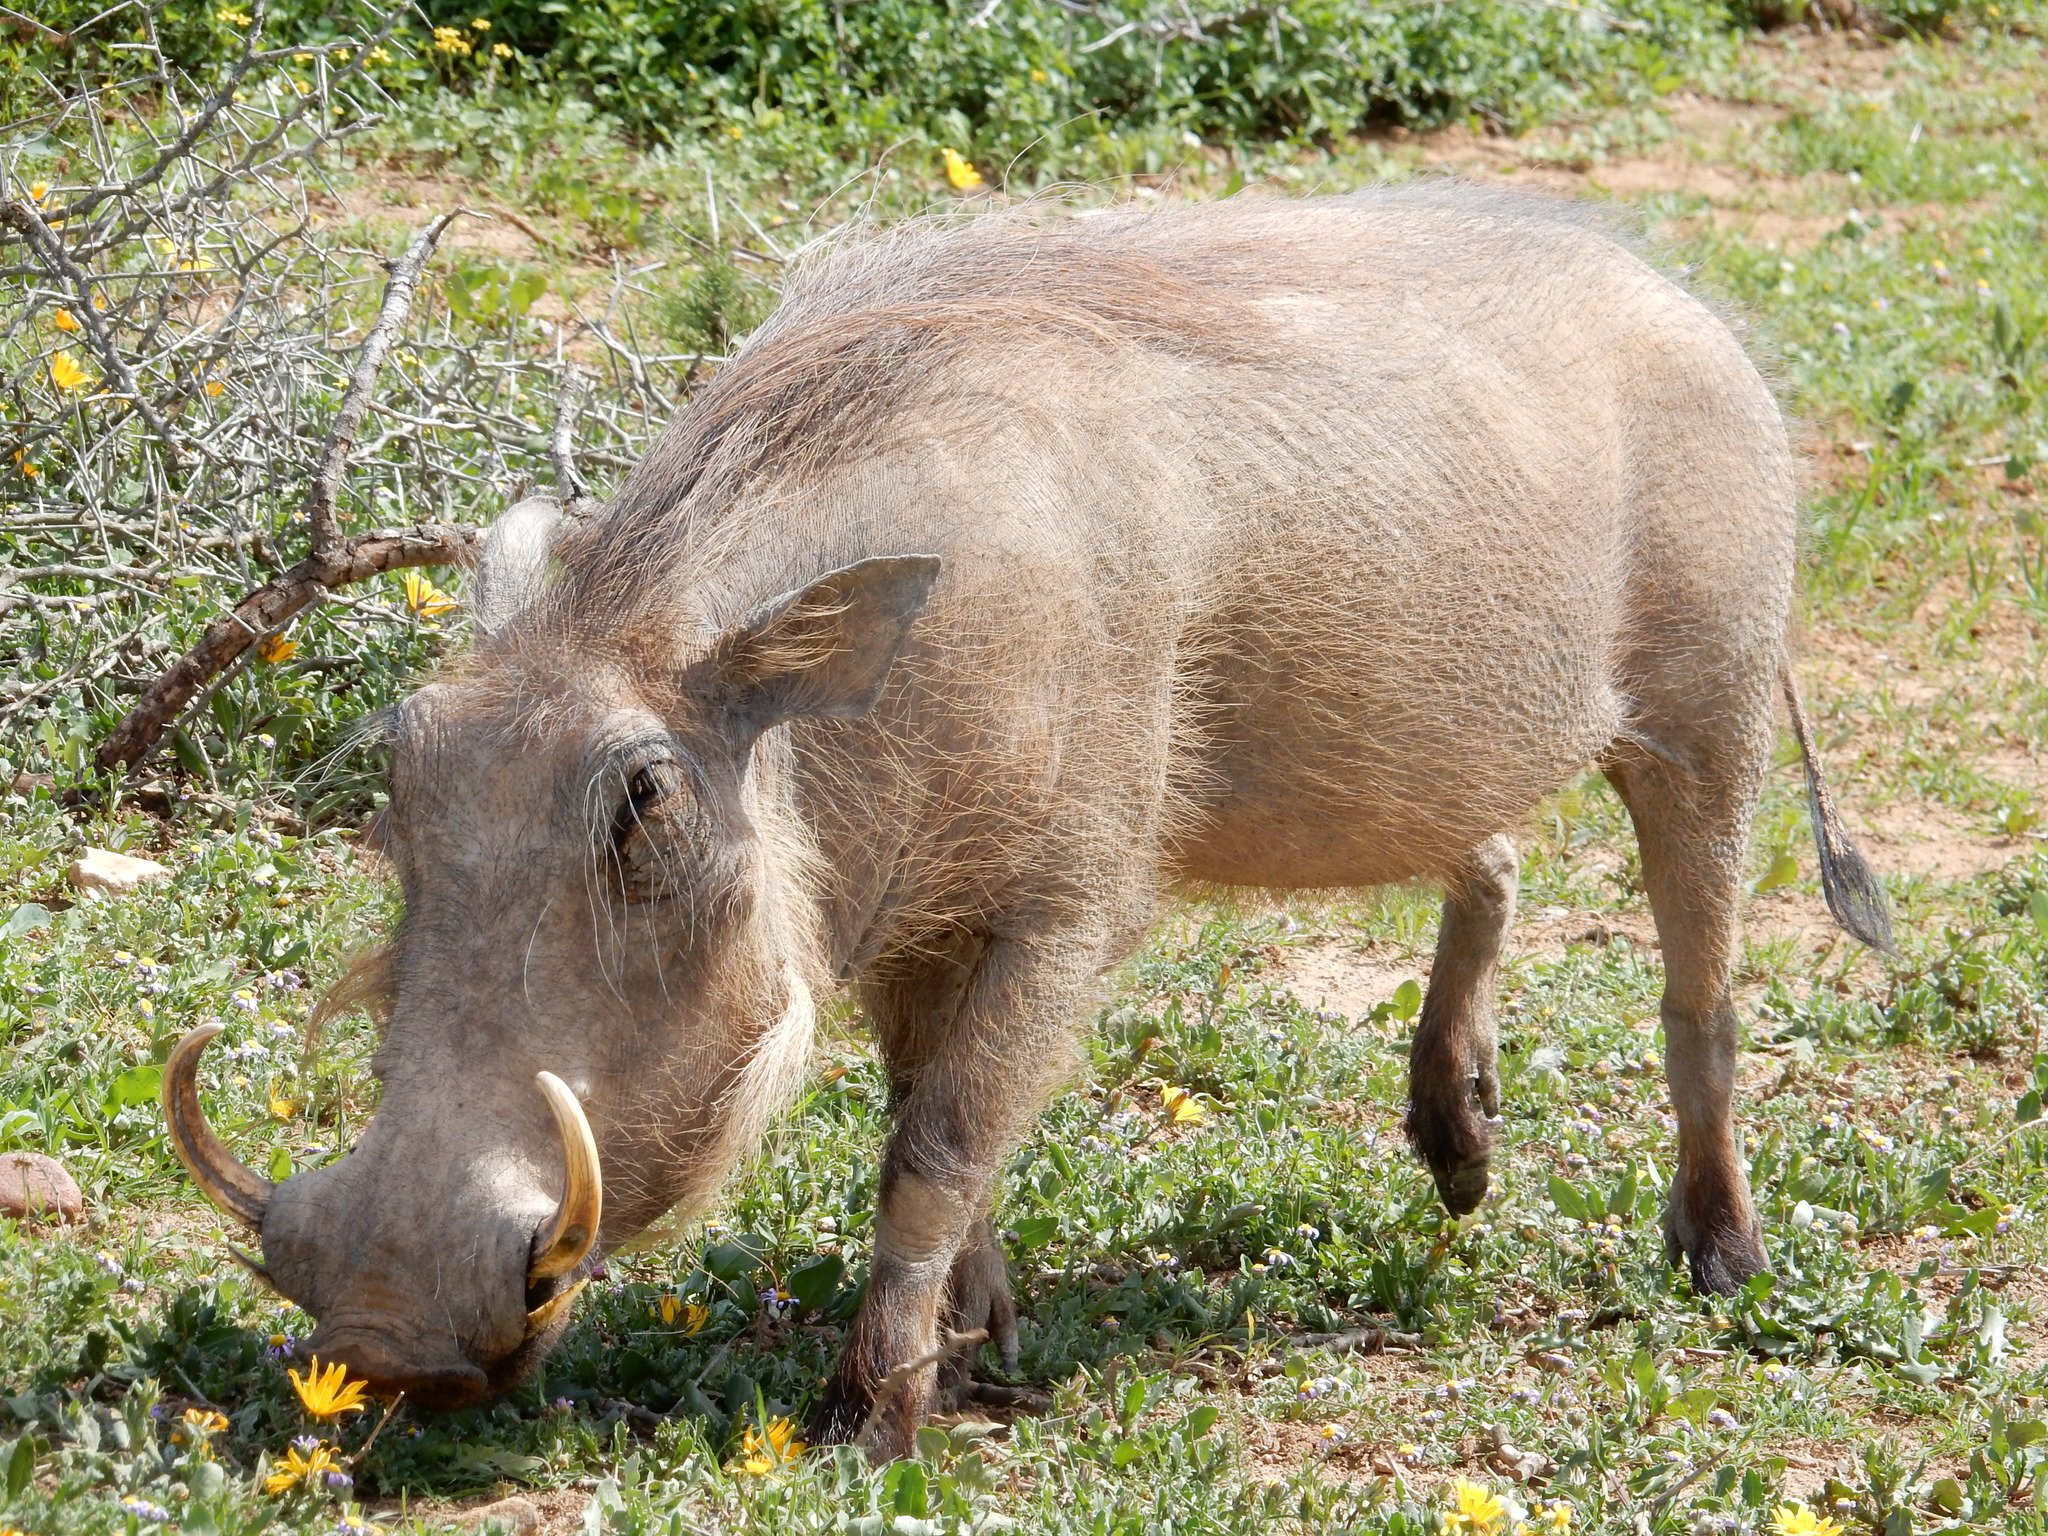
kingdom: Animalia
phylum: Chordata
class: Mammalia
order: Artiodactyla
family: Suidae
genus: Phacochoerus
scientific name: Phacochoerus africanus
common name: Common warthog
